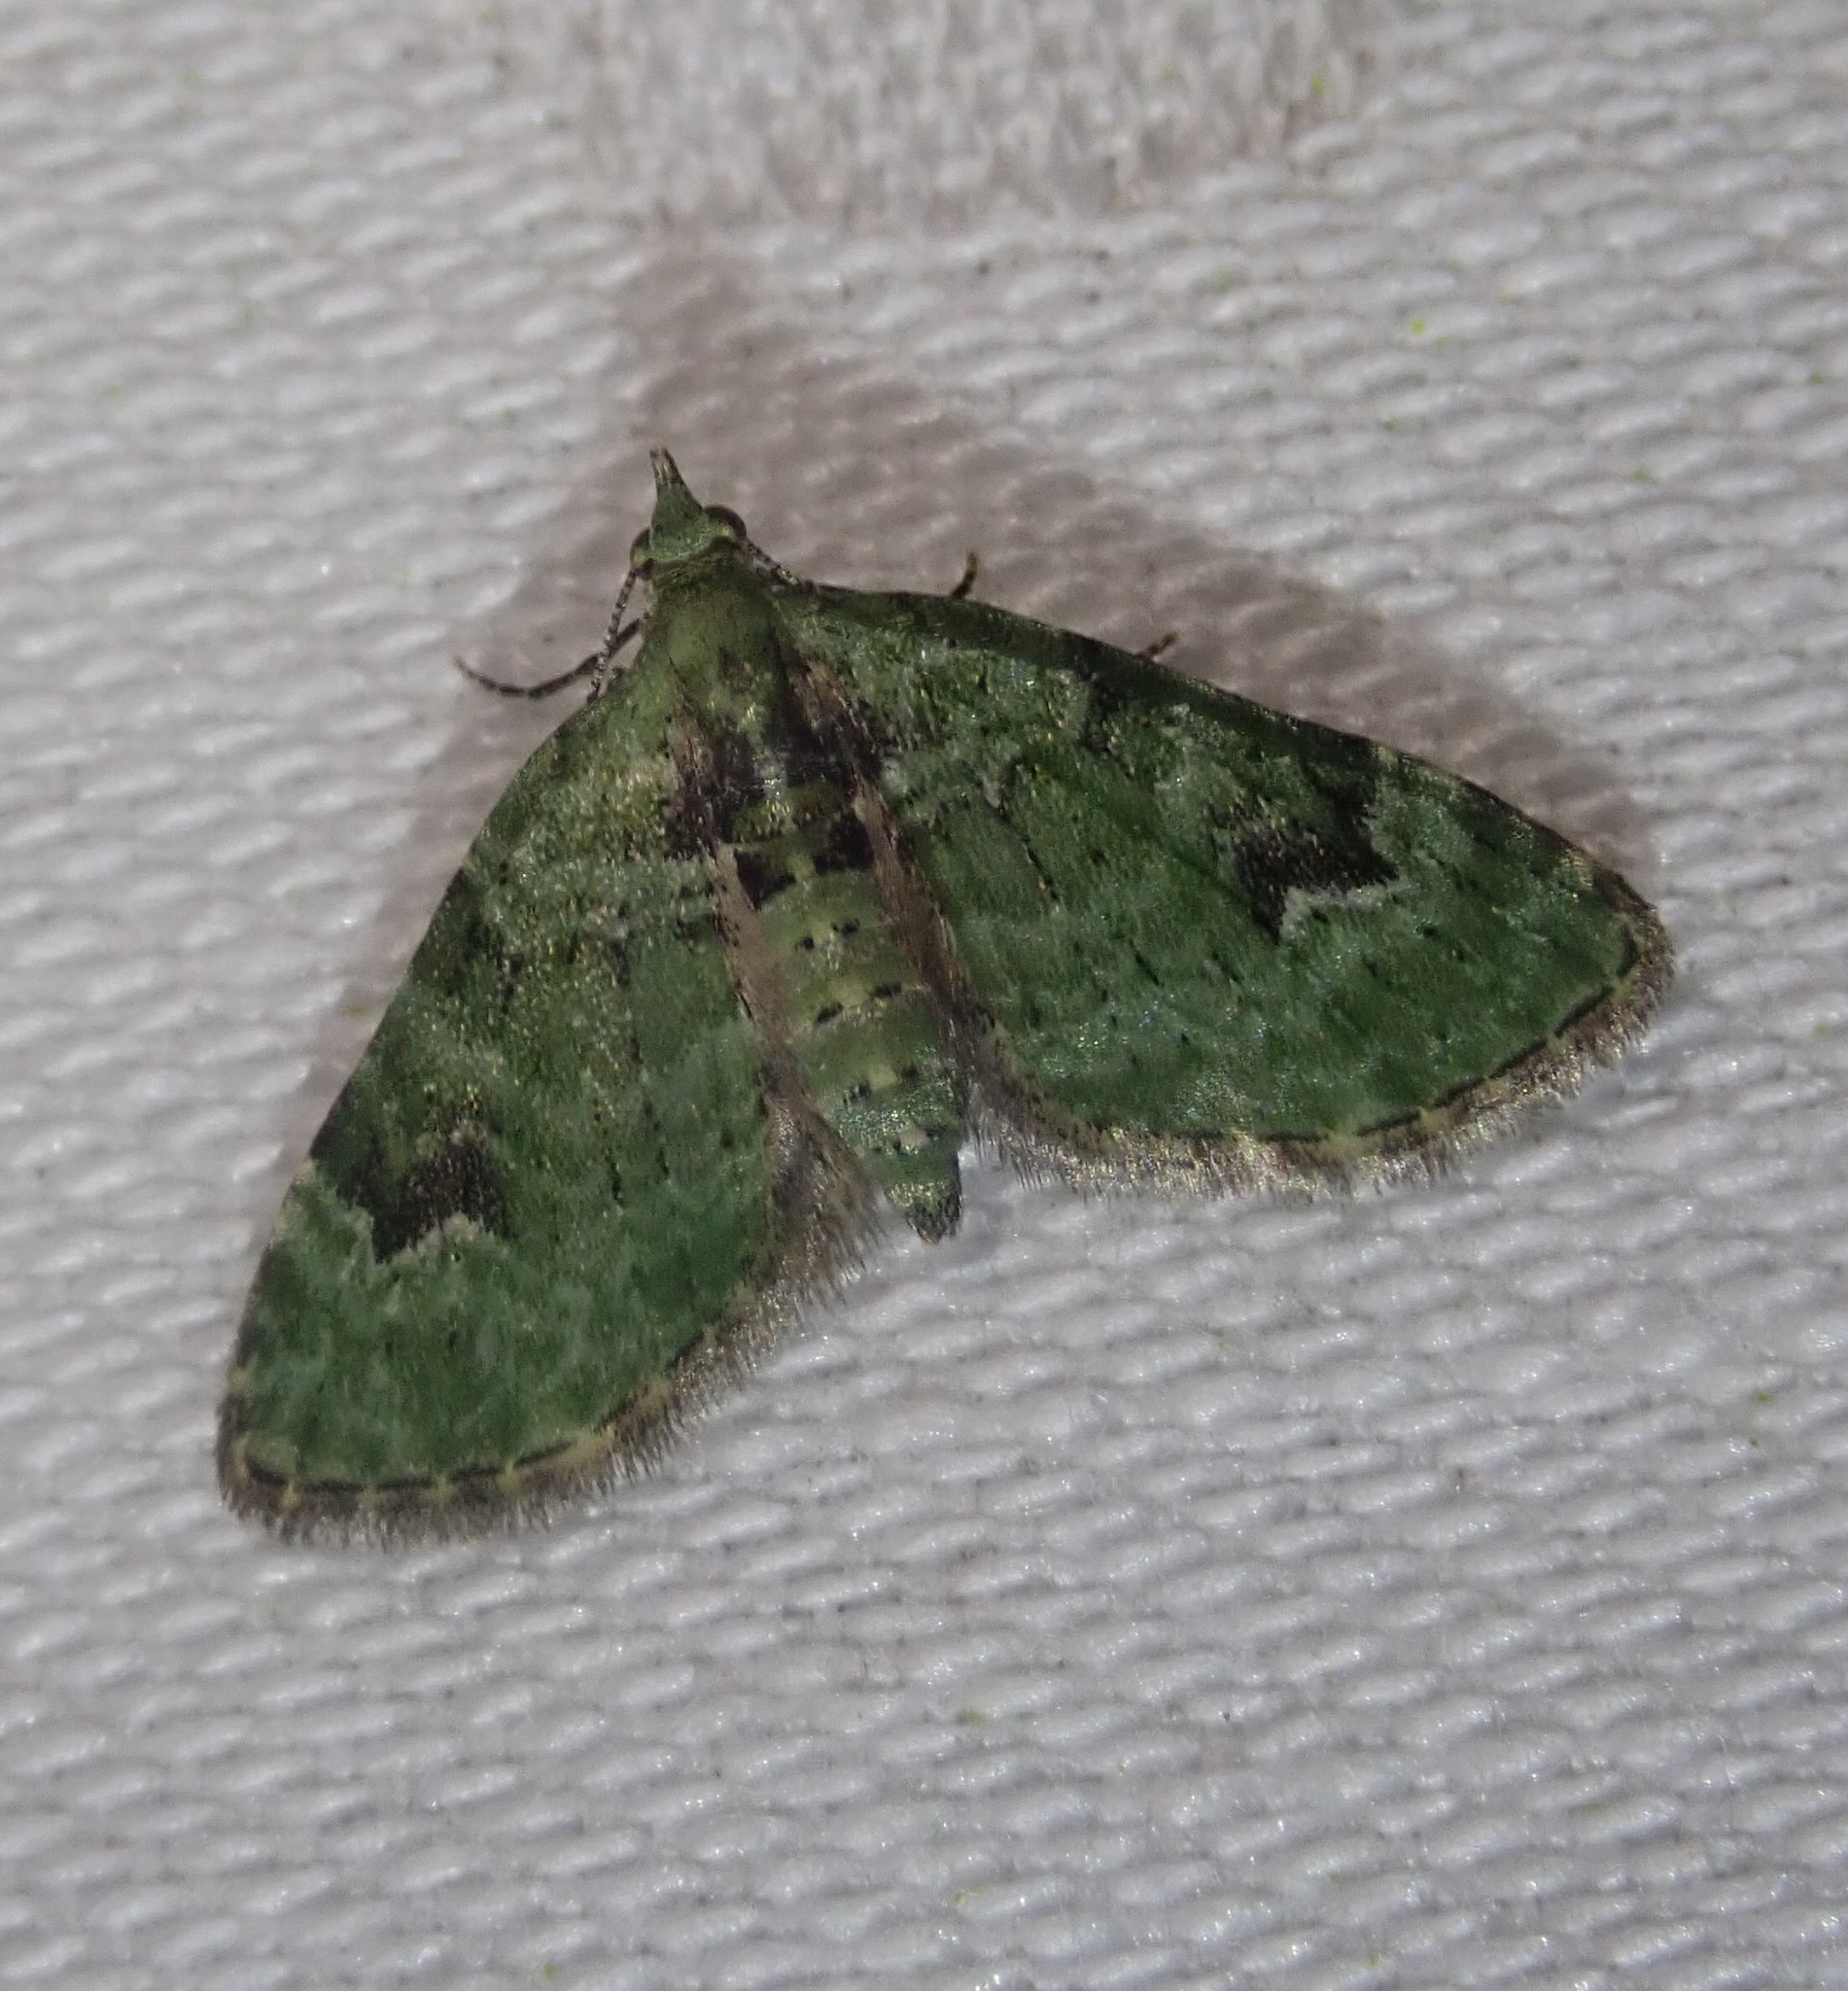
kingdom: Animalia
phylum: Arthropoda
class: Insecta
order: Lepidoptera
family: Geometridae
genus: Chloroclystis
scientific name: Chloroclystis v-ata
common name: V-pug
